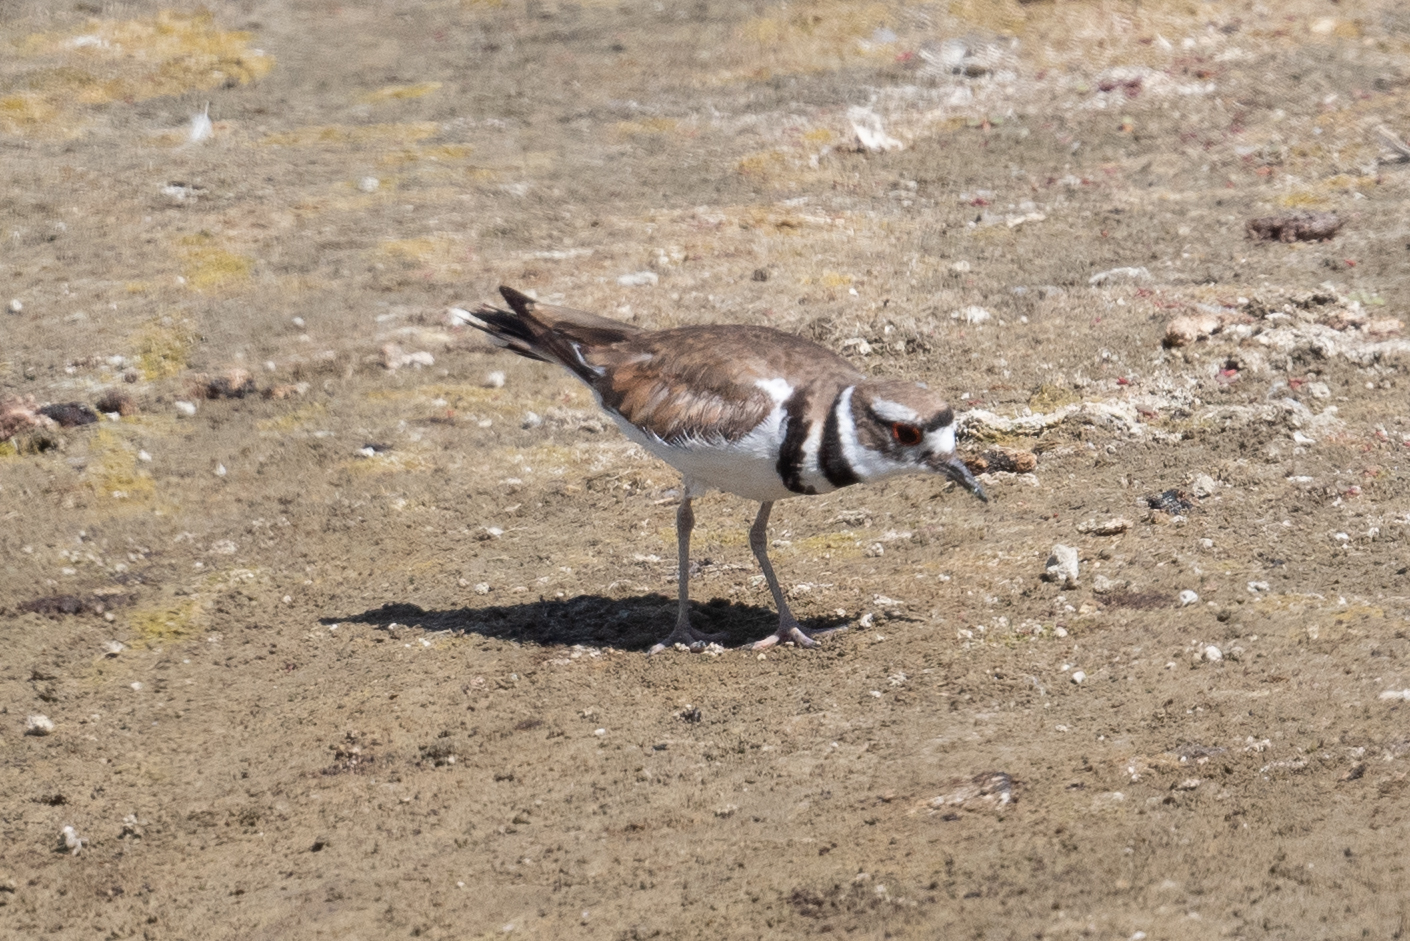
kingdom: Animalia
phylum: Chordata
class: Aves
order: Charadriiformes
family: Charadriidae
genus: Charadrius
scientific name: Charadrius vociferus
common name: Killdeer
